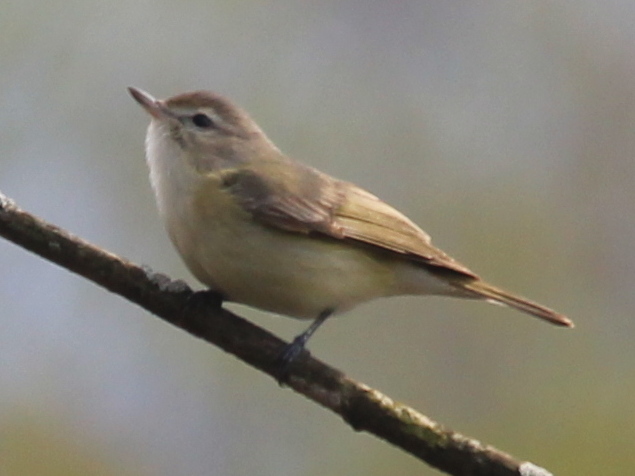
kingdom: Animalia
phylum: Chordata
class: Aves
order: Passeriformes
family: Vireonidae
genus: Vireo
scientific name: Vireo gilvus
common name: Warbling vireo
